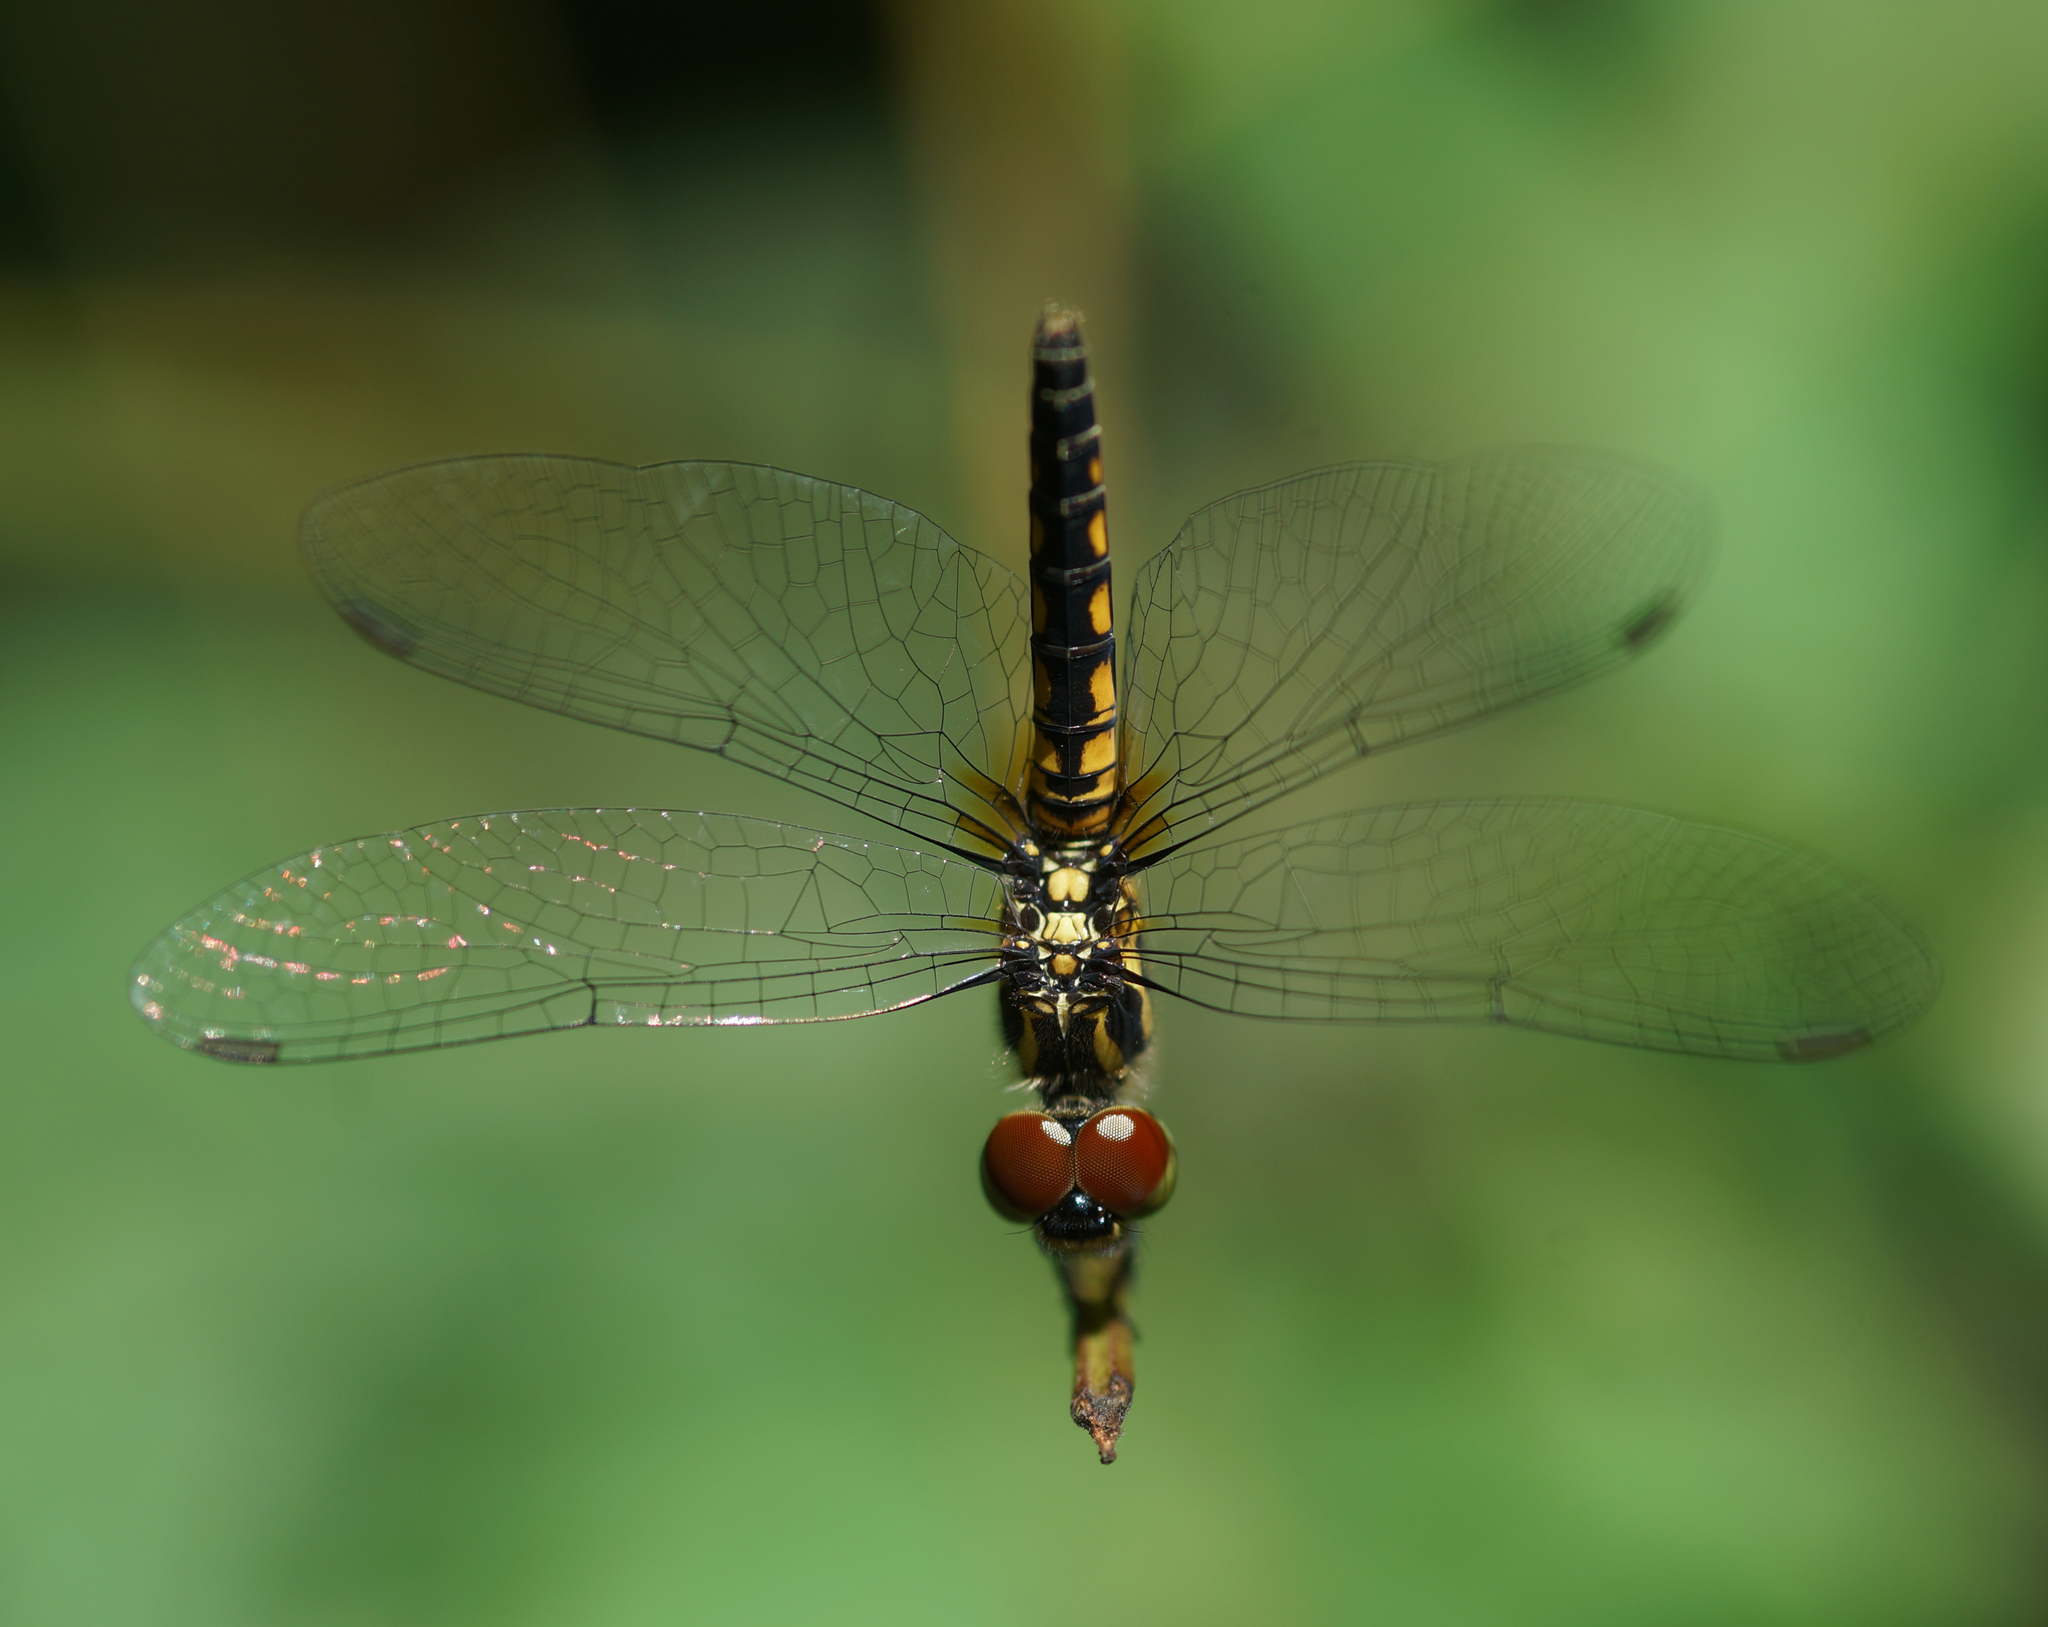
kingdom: Animalia
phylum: Arthropoda
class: Insecta
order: Odonata
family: Libellulidae
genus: Aethriamanta
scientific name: Aethriamanta aethra
